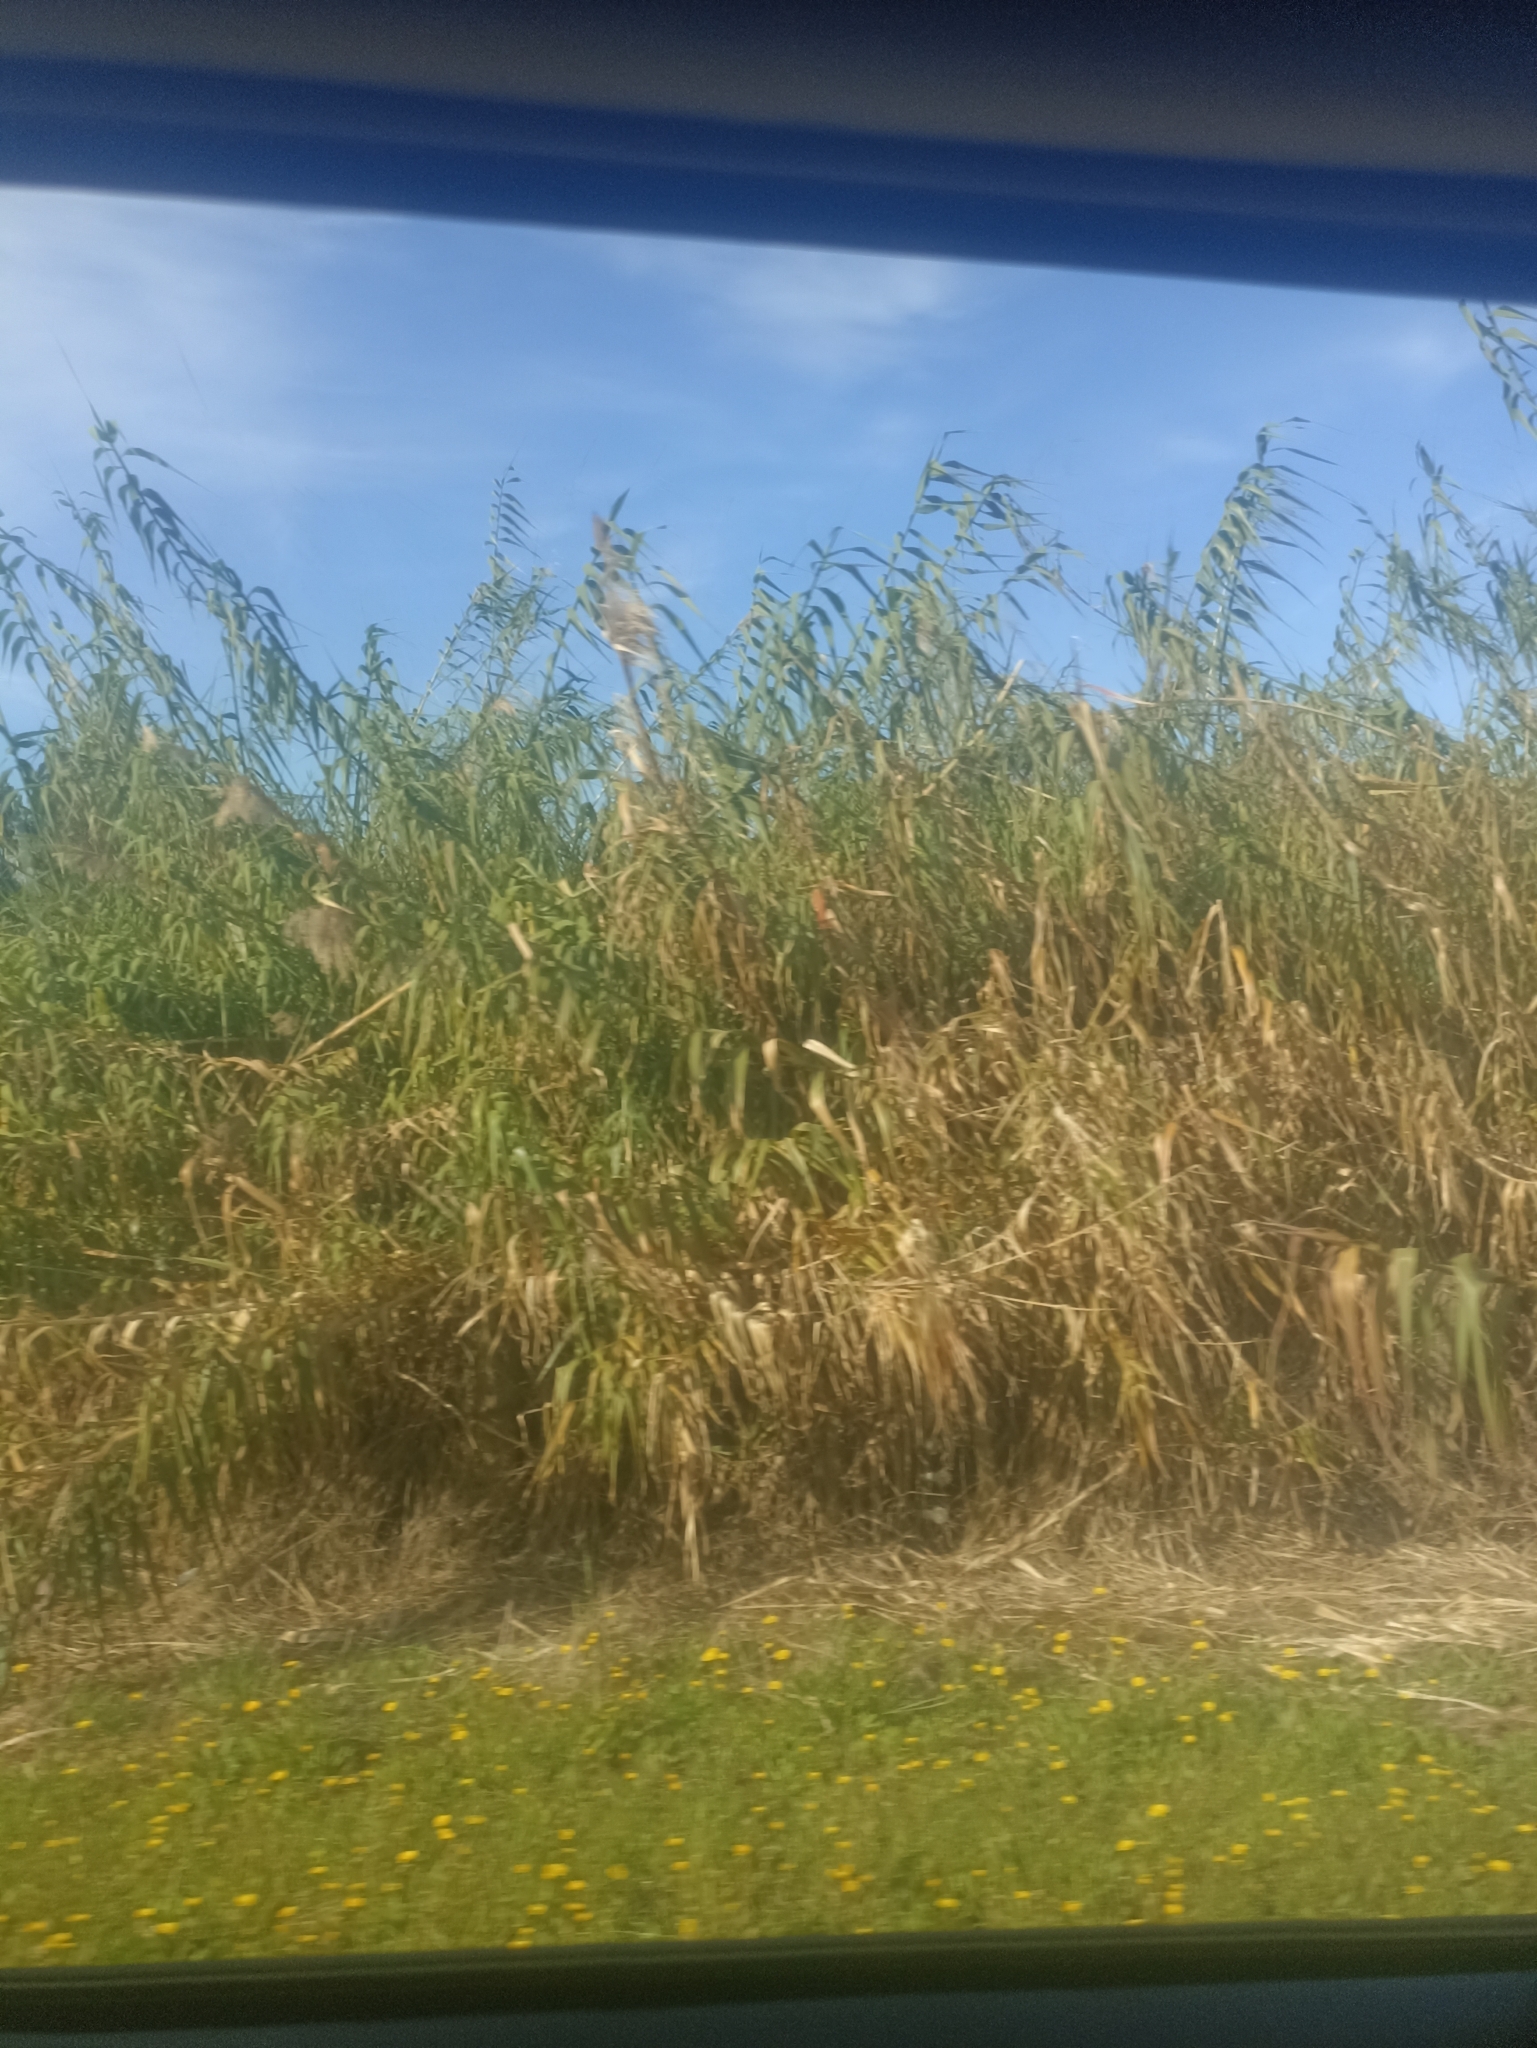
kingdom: Plantae
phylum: Tracheophyta
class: Liliopsida
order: Poales
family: Poaceae
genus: Arundo
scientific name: Arundo donax
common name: Giant reed
